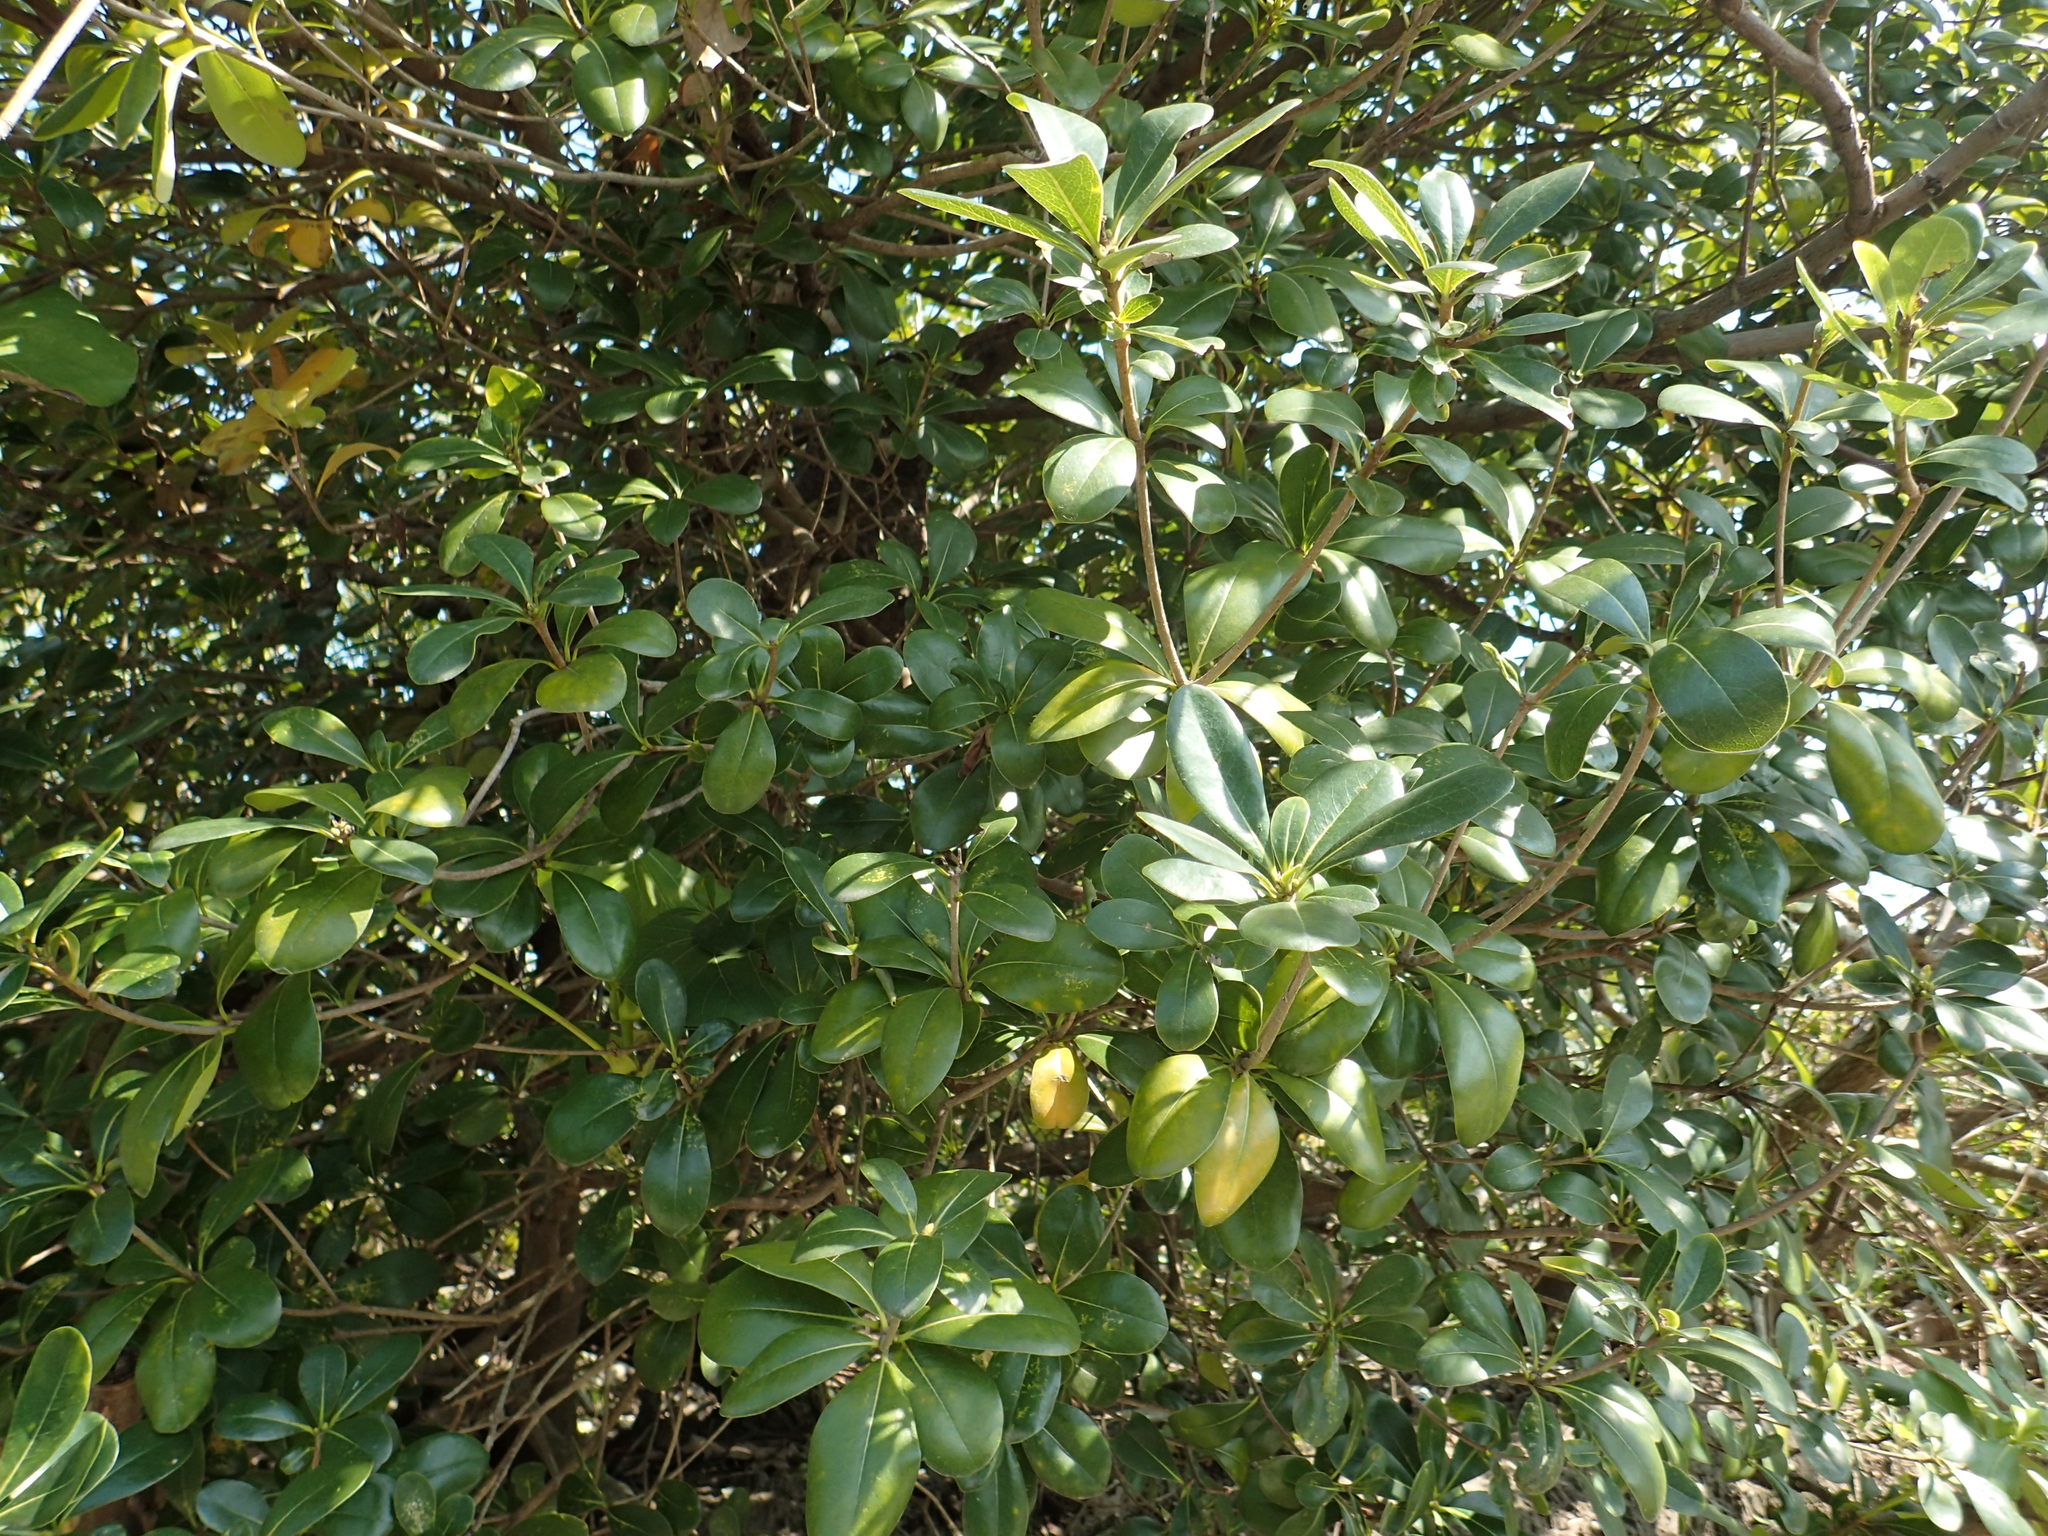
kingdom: Plantae
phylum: Tracheophyta
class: Magnoliopsida
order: Apiales
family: Pittosporaceae
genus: Pittosporum
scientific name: Pittosporum tobira
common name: Japanese cheesewood
